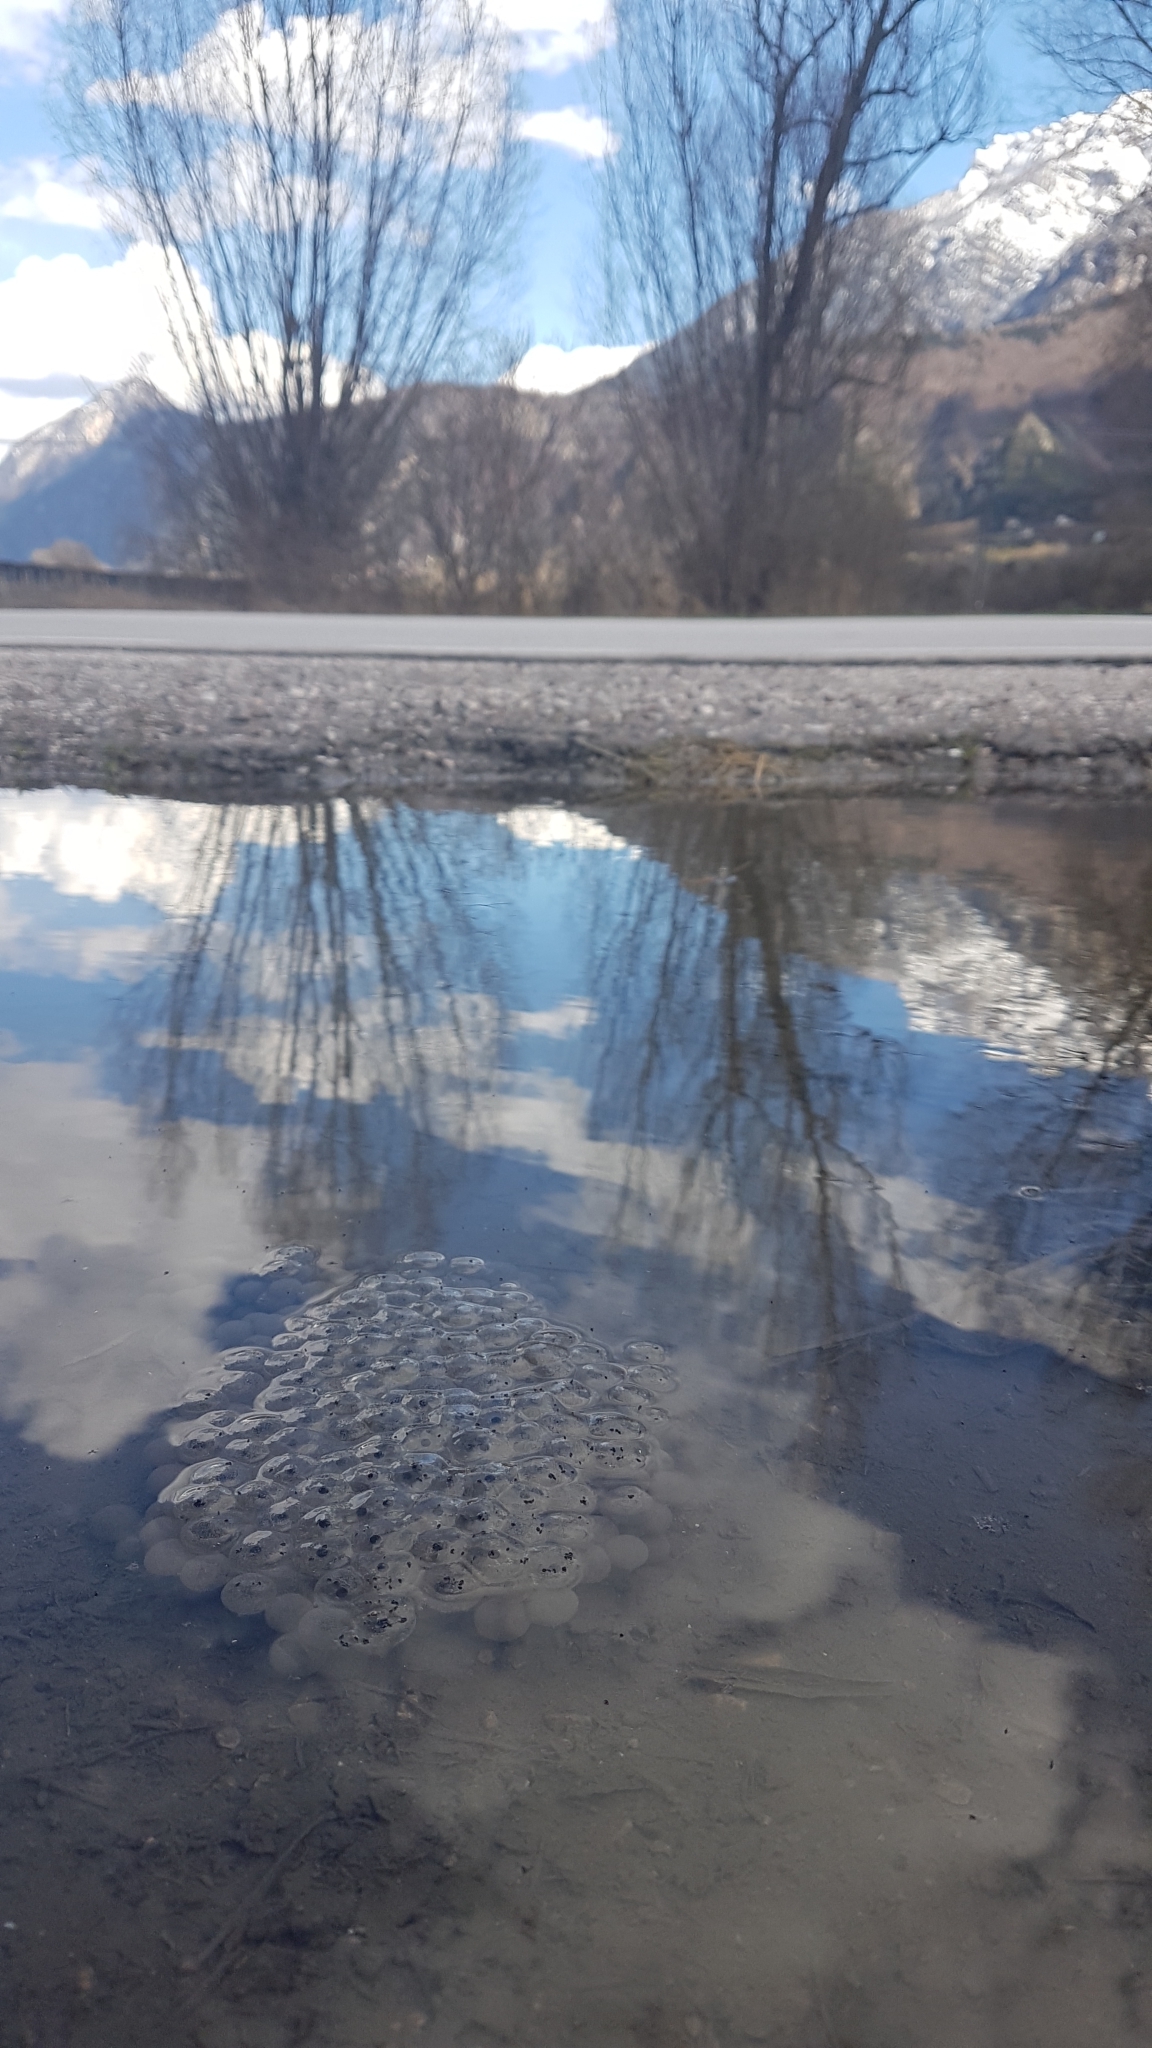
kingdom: Animalia
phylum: Chordata
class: Amphibia
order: Anura
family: Ranidae
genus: Rana
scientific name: Rana temporaria
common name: Common frog
